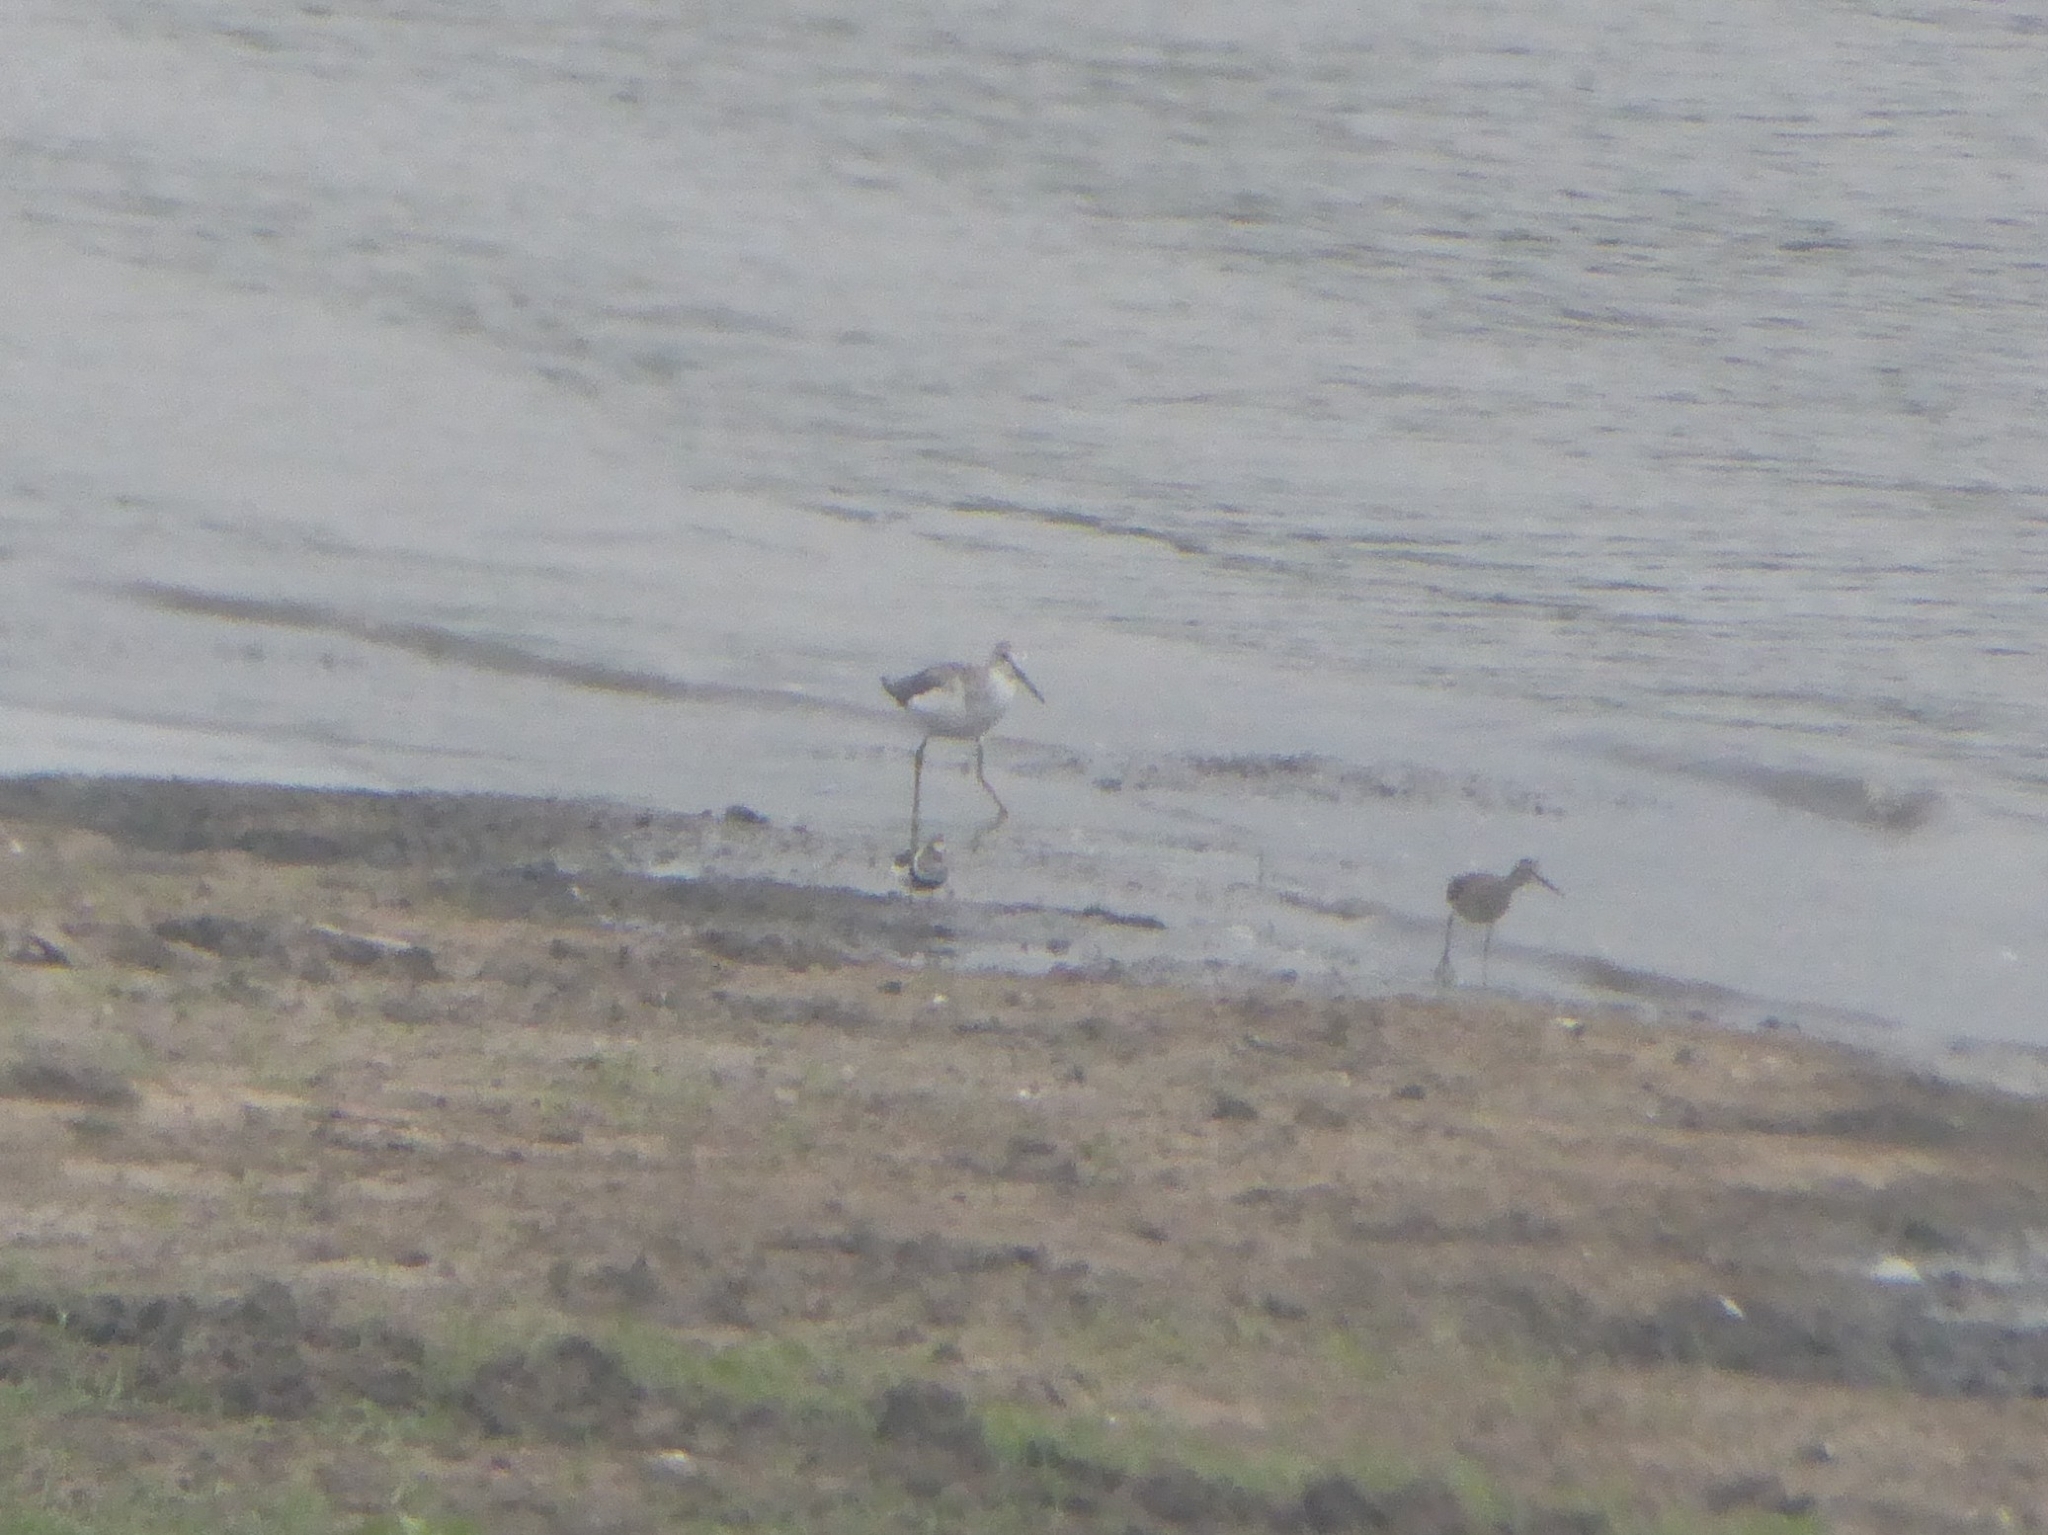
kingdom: Animalia
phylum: Chordata
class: Aves
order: Charadriiformes
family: Scolopacidae
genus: Tringa
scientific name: Tringa nebularia
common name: Common greenshank
